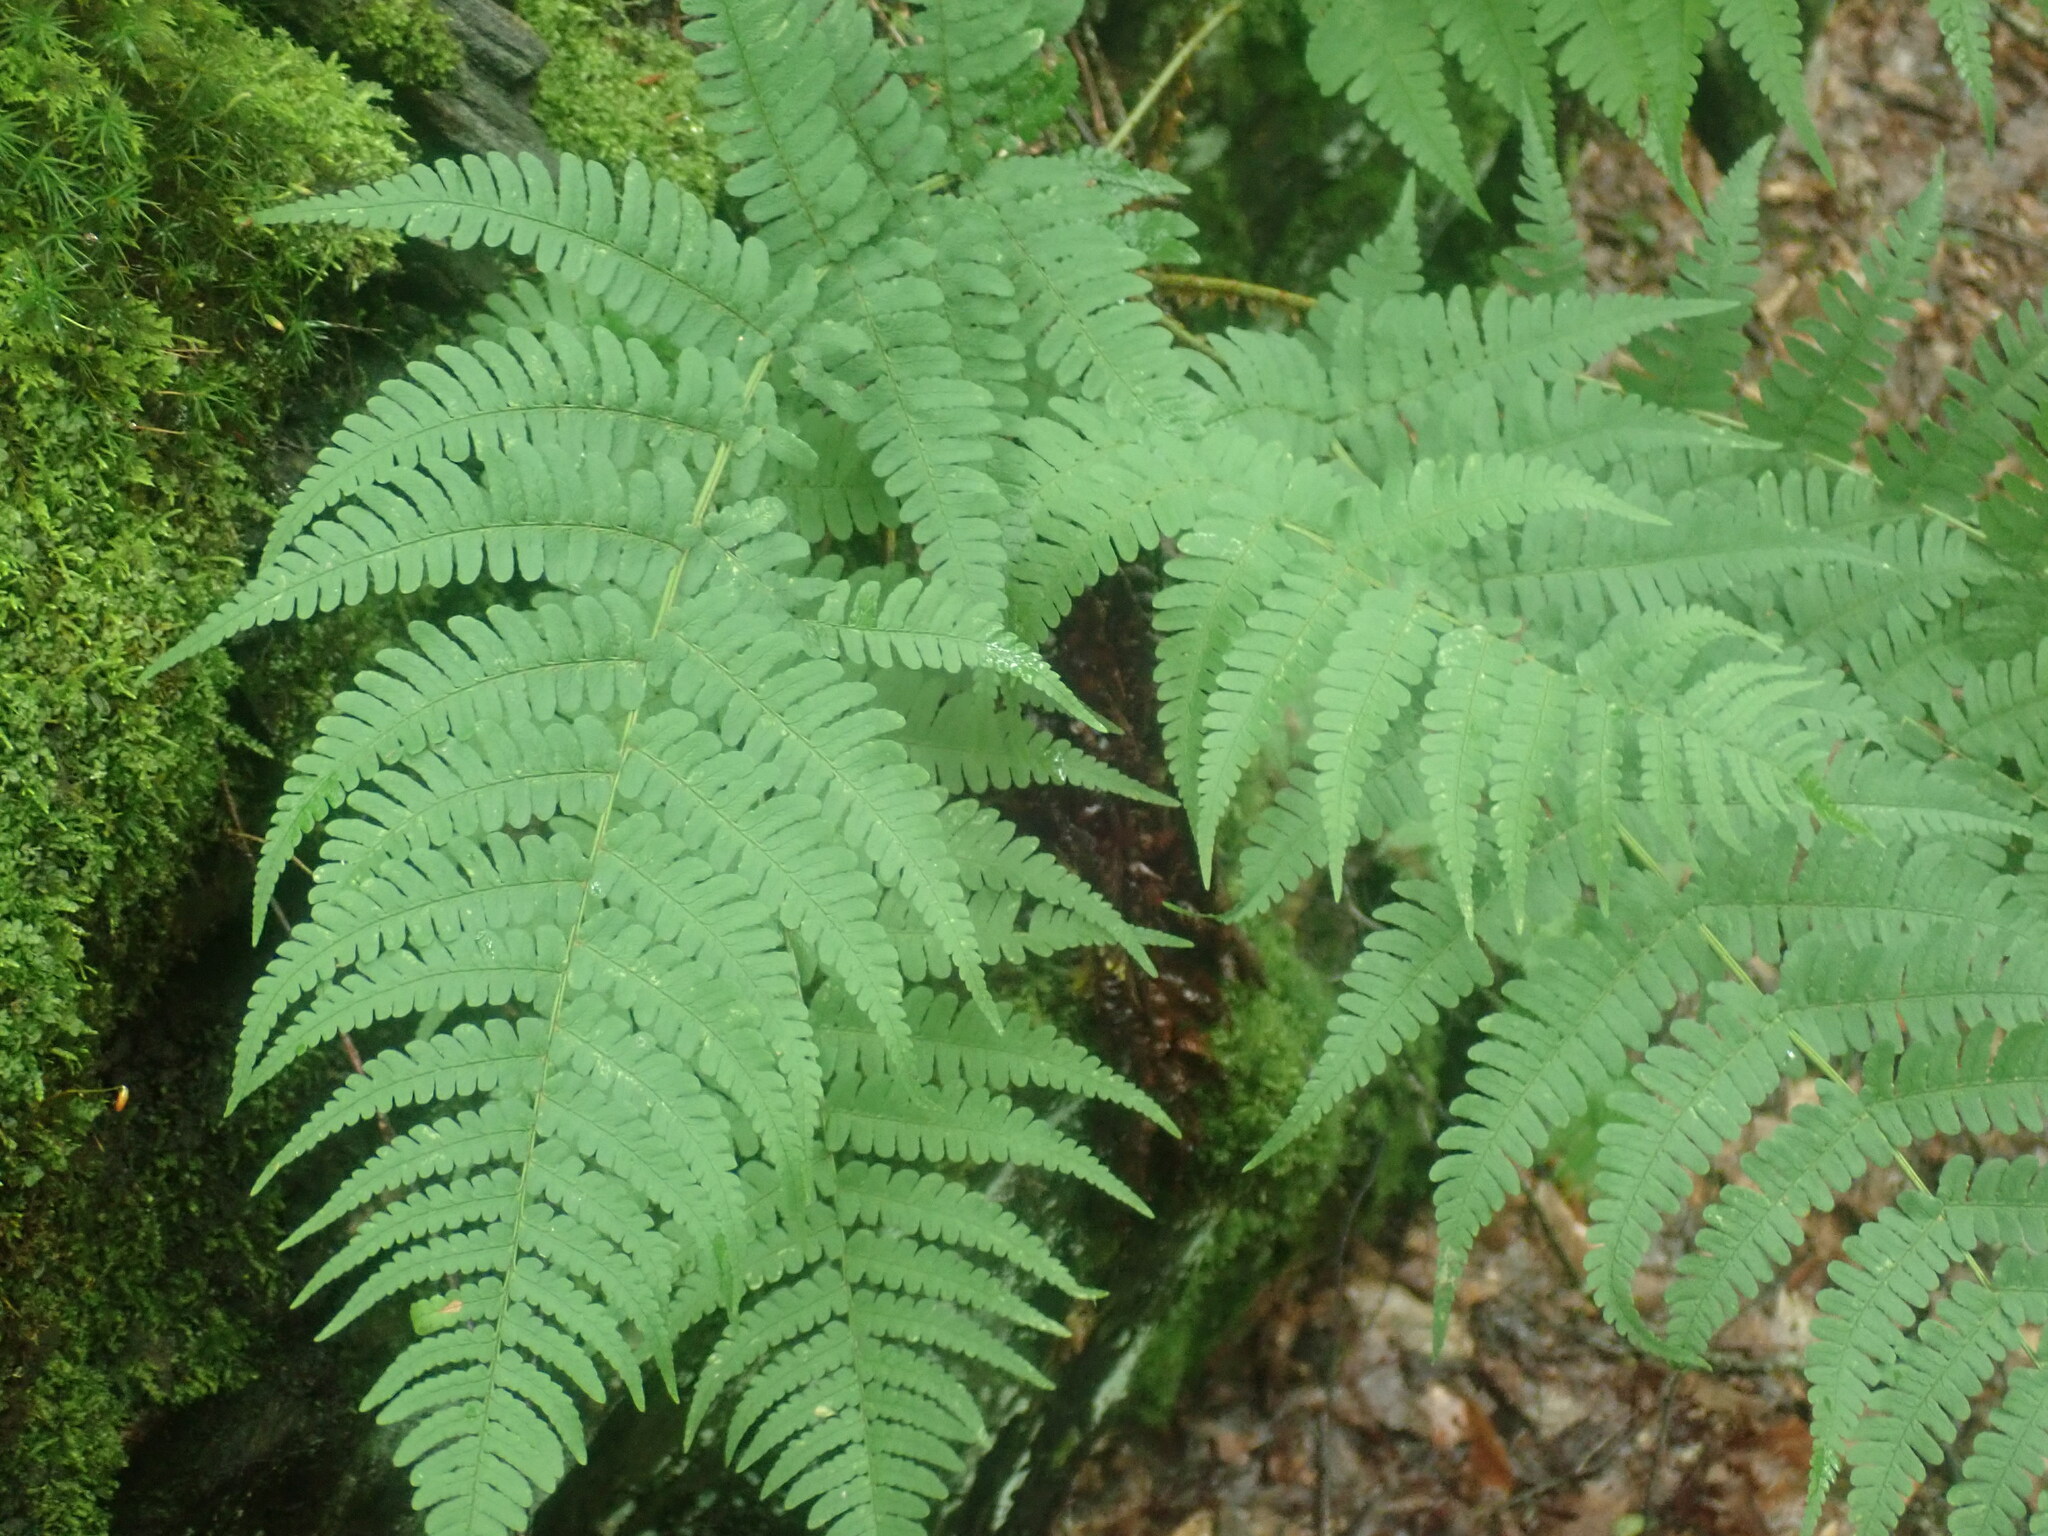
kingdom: Plantae
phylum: Tracheophyta
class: Polypodiopsida
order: Polypodiales
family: Dryopteridaceae
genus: Dryopteris
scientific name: Dryopteris marginalis
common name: Marginal wood fern
